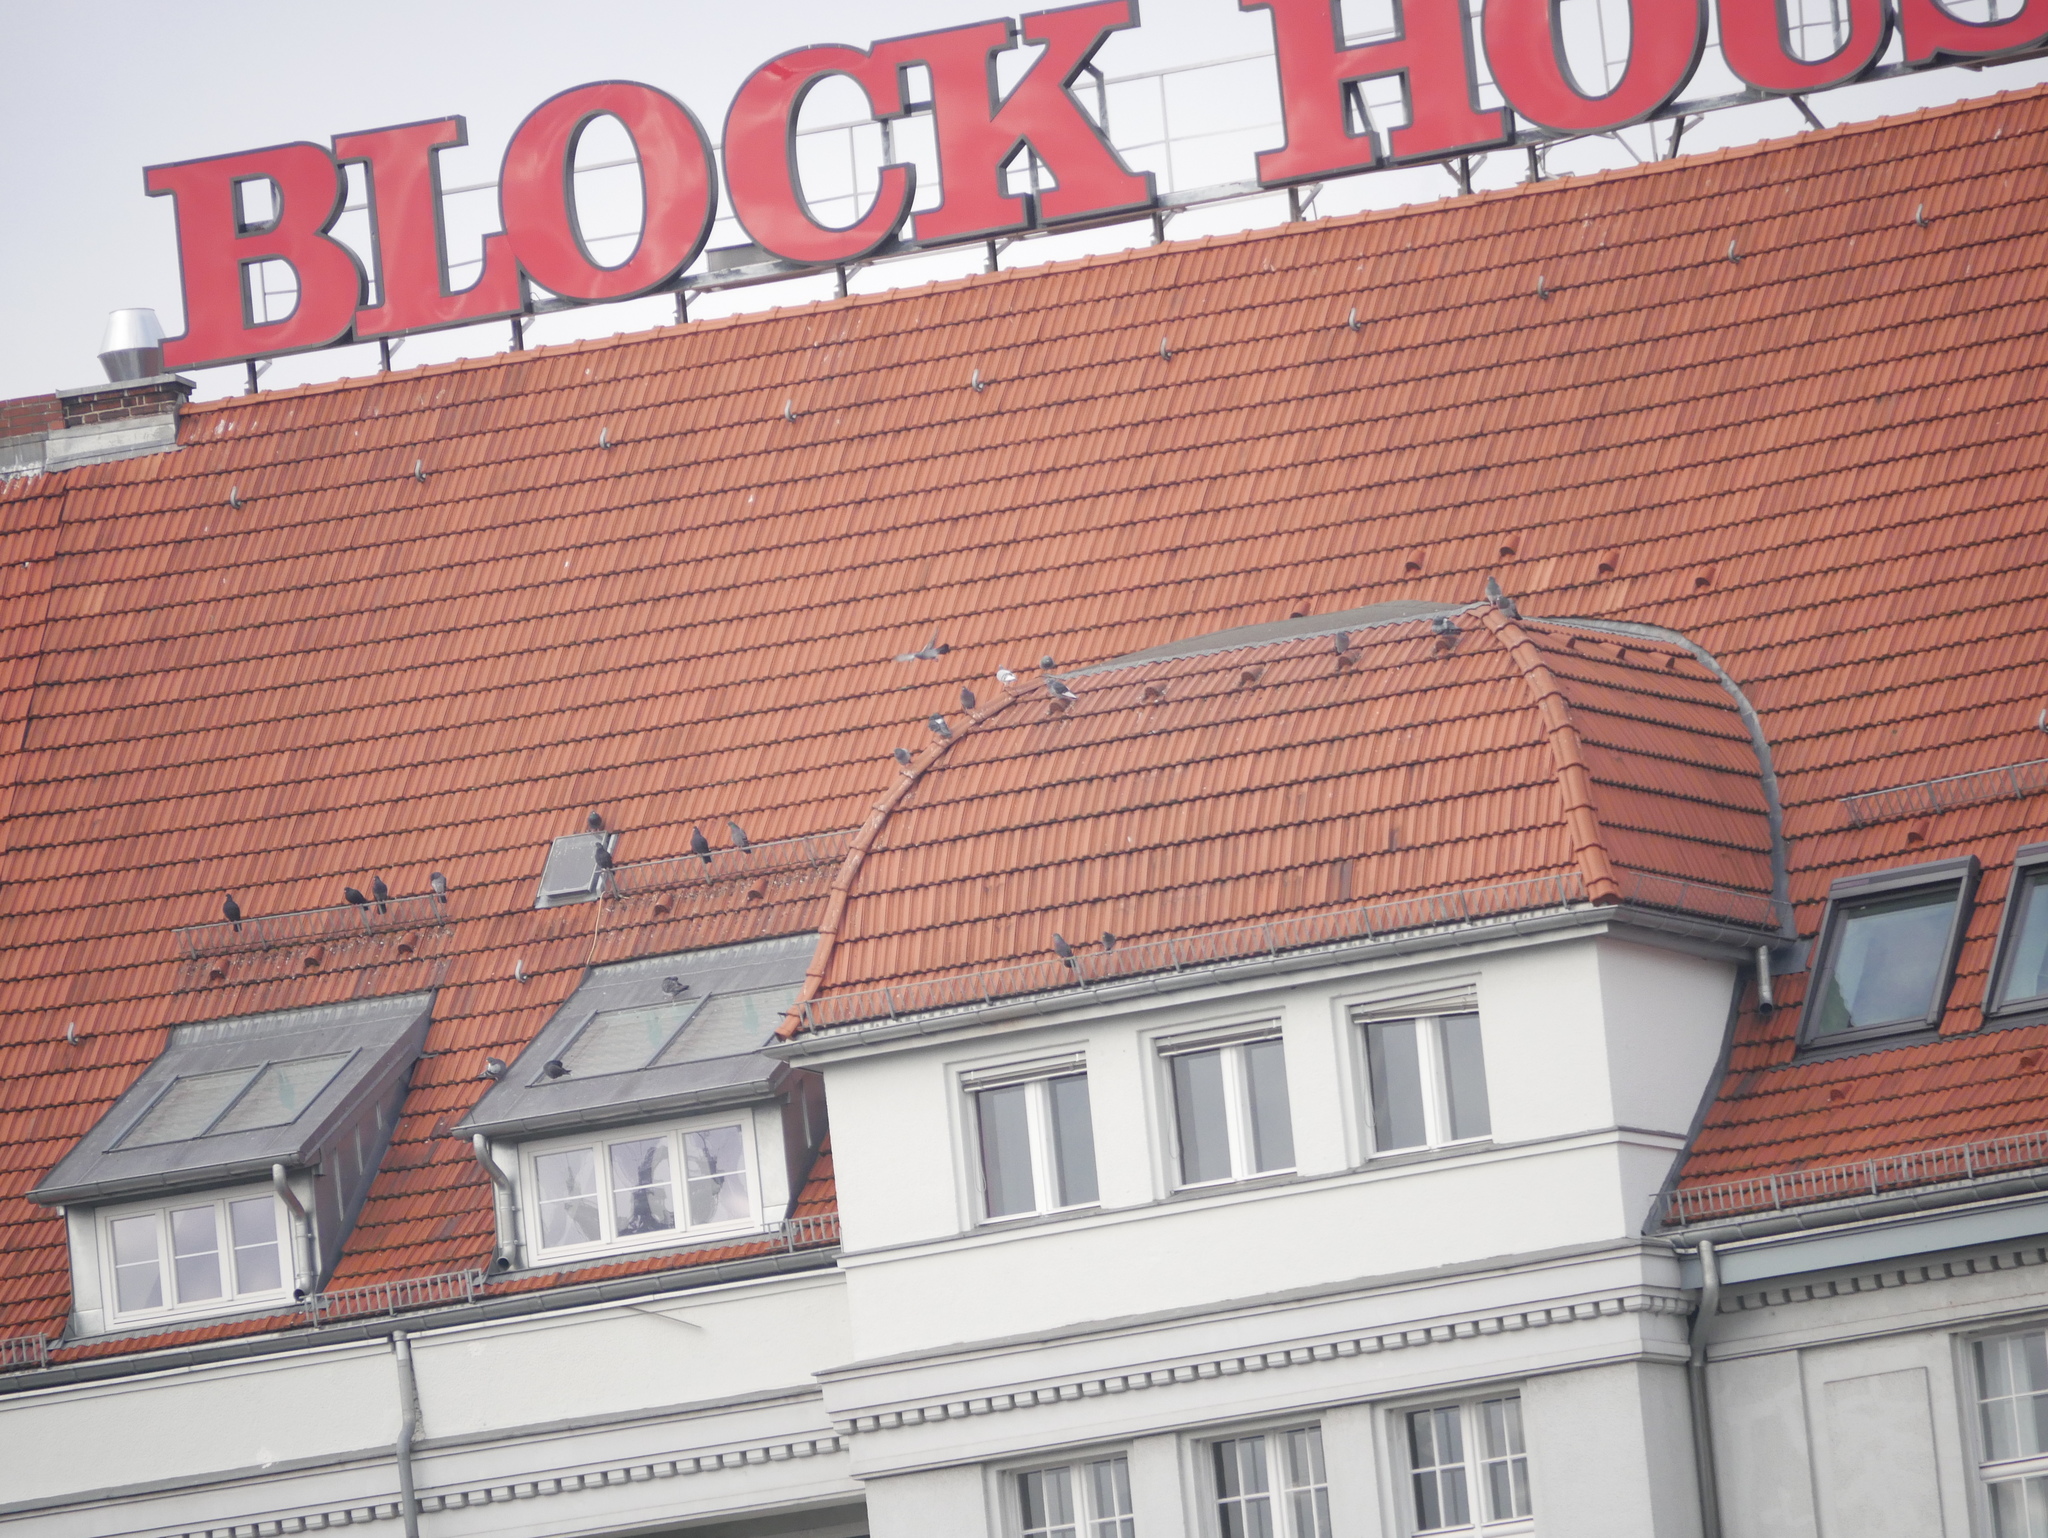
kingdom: Animalia
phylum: Chordata
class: Aves
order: Columbiformes
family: Columbidae
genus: Columba
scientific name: Columba livia
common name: Rock pigeon
